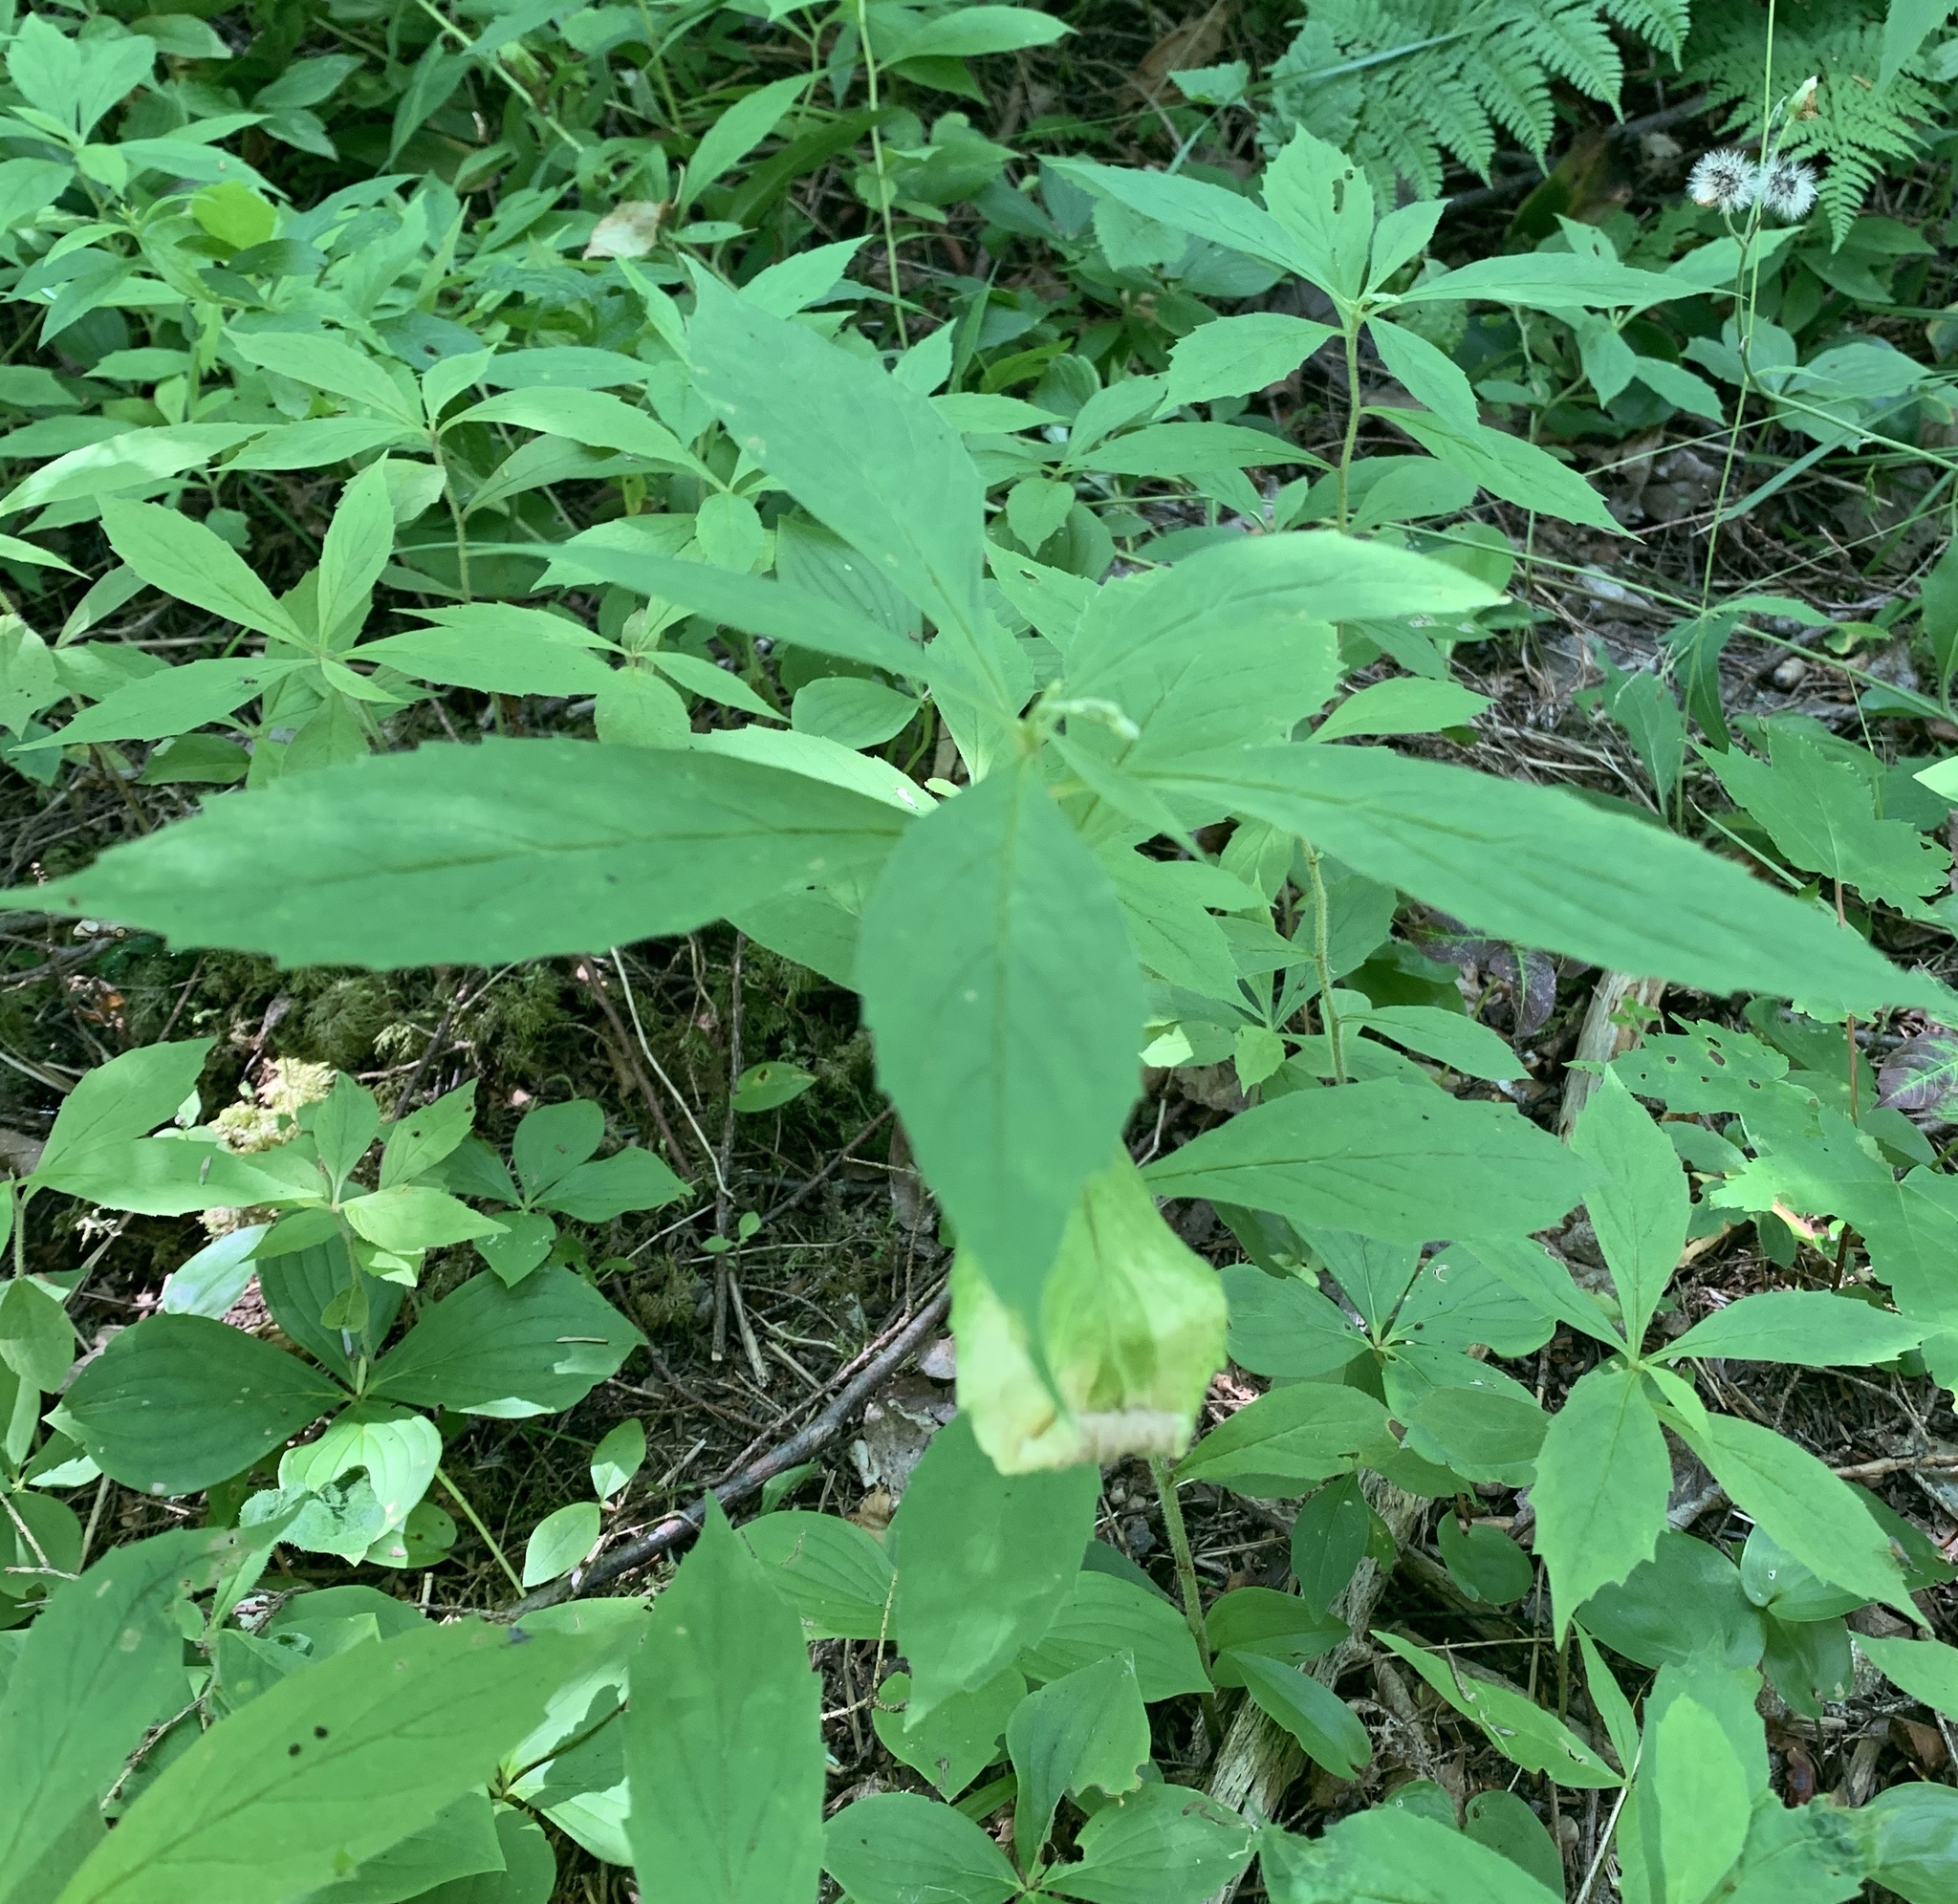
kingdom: Plantae
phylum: Tracheophyta
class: Magnoliopsida
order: Asterales
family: Asteraceae
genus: Oclemena
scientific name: Oclemena acuminata
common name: Mountain aster
